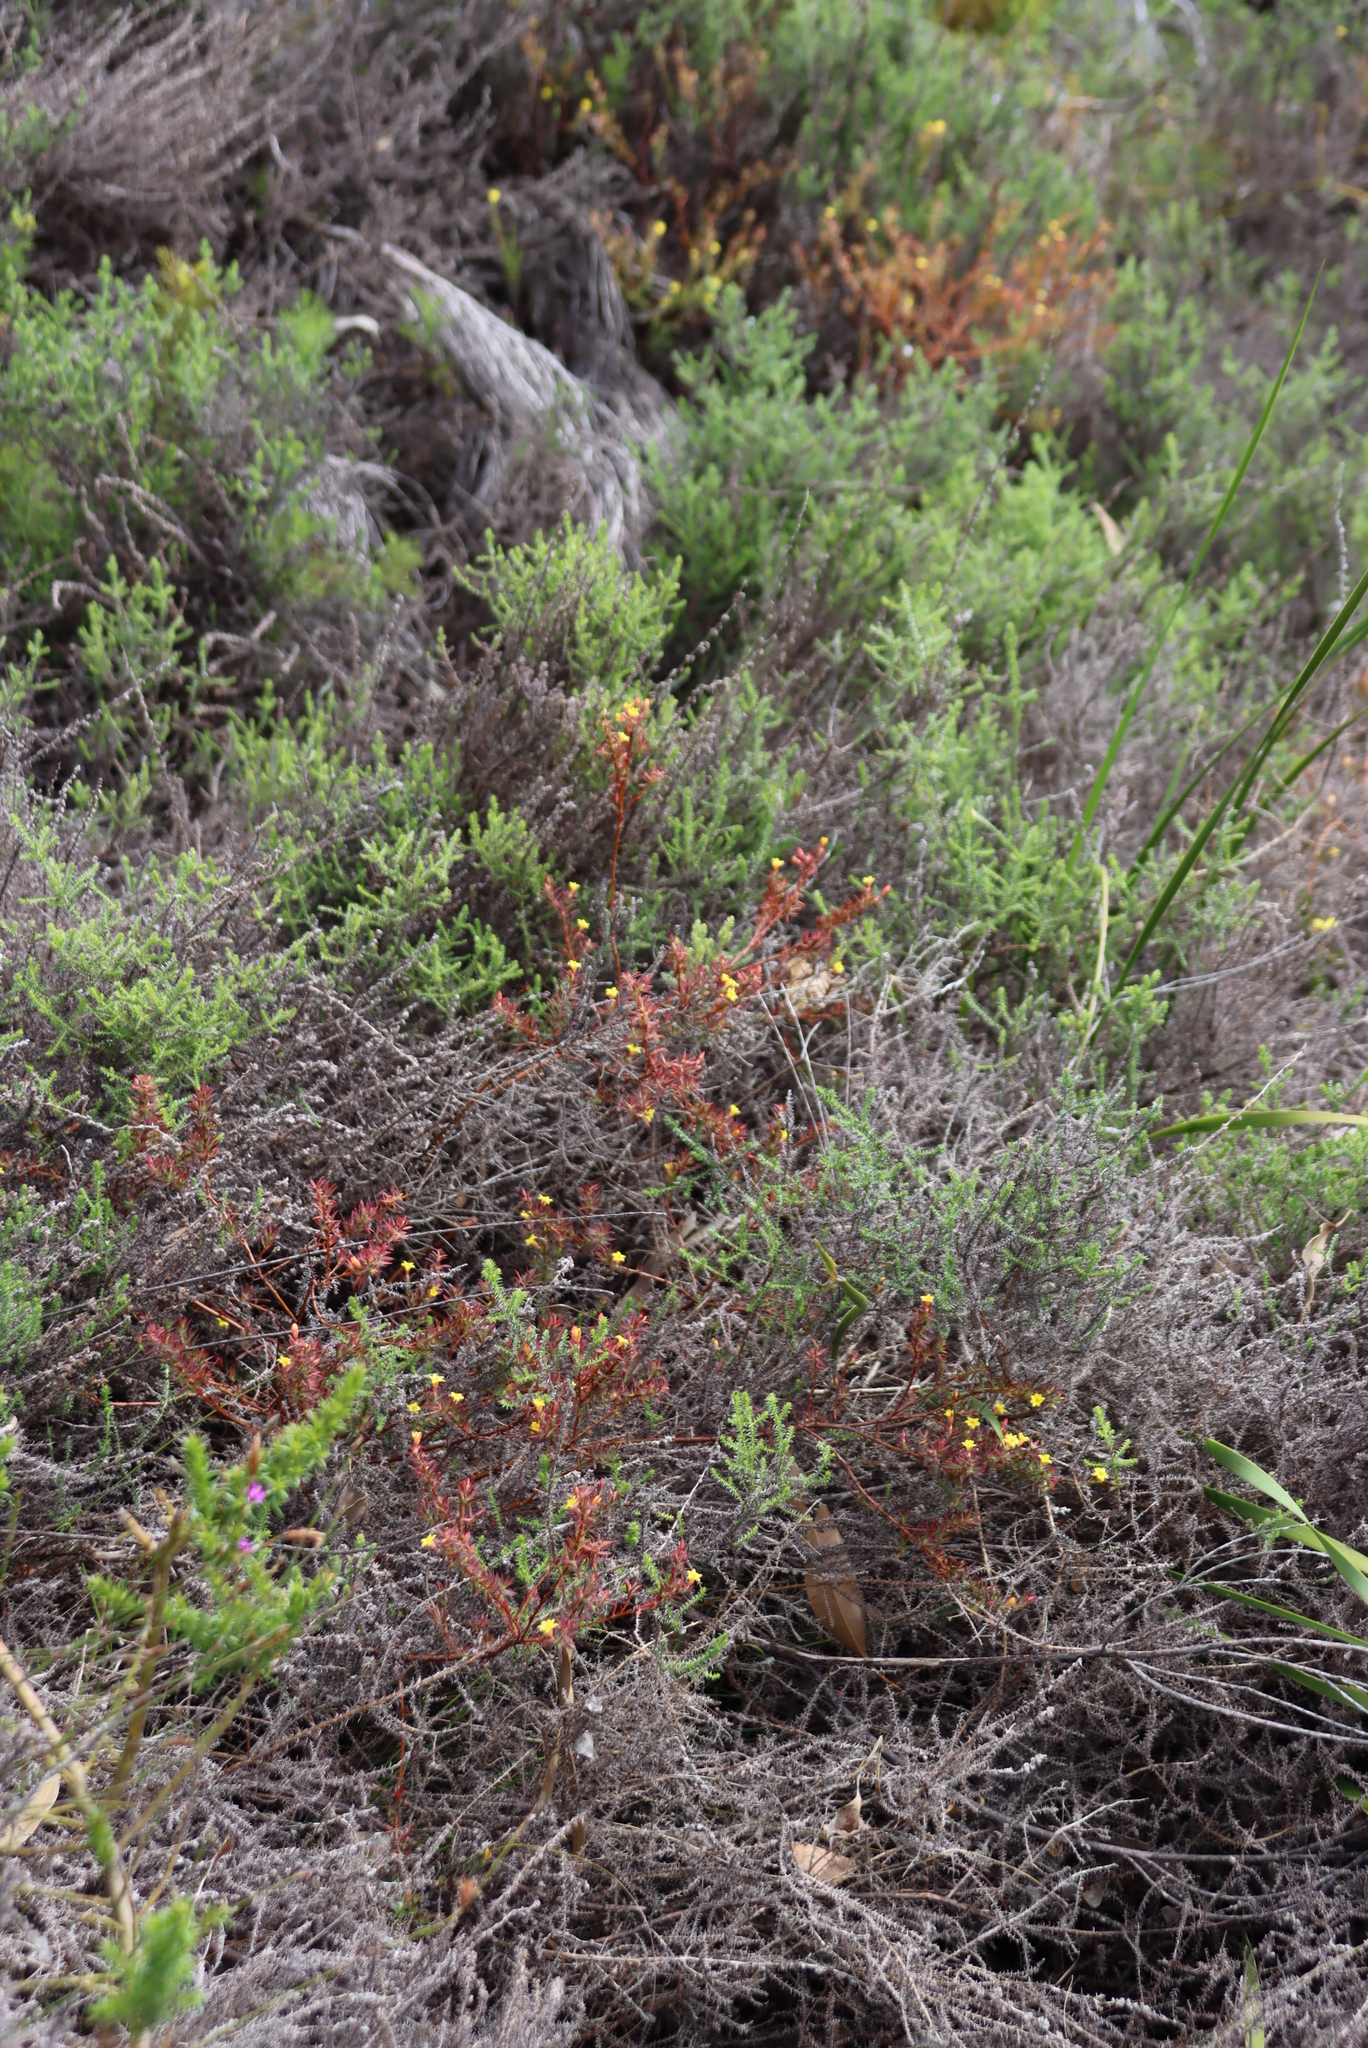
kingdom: Plantae
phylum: Tracheophyta
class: Magnoliopsida
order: Malvales
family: Thymelaeaceae
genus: Gnidia
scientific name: Gnidia juniperifolia
